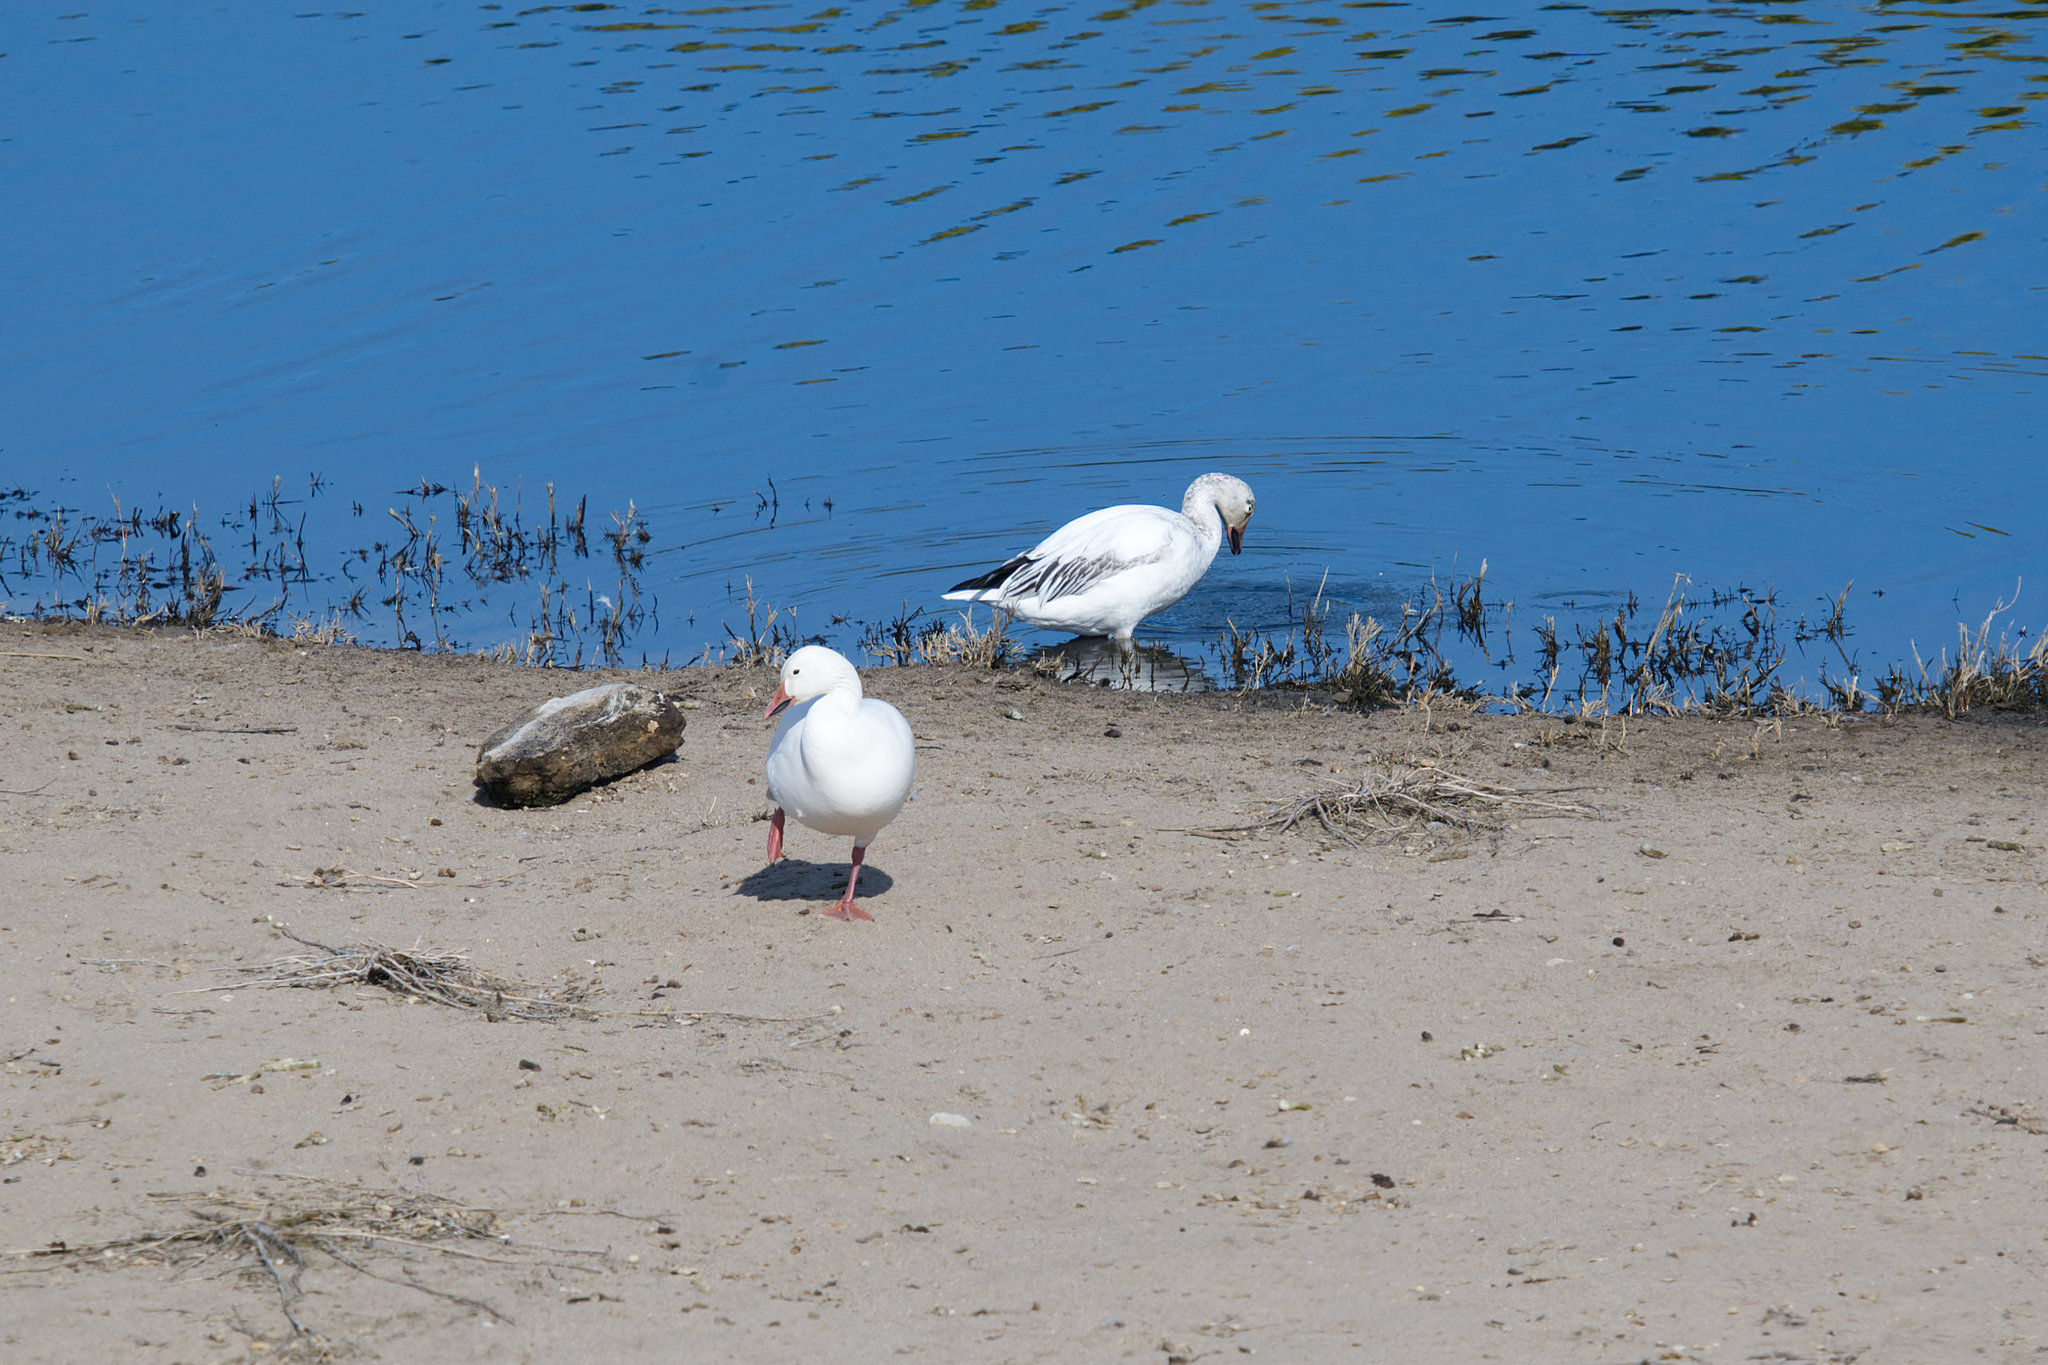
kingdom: Animalia
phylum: Chordata
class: Aves
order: Anseriformes
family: Anatidae
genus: Anser
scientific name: Anser caerulescens
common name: Snow goose
